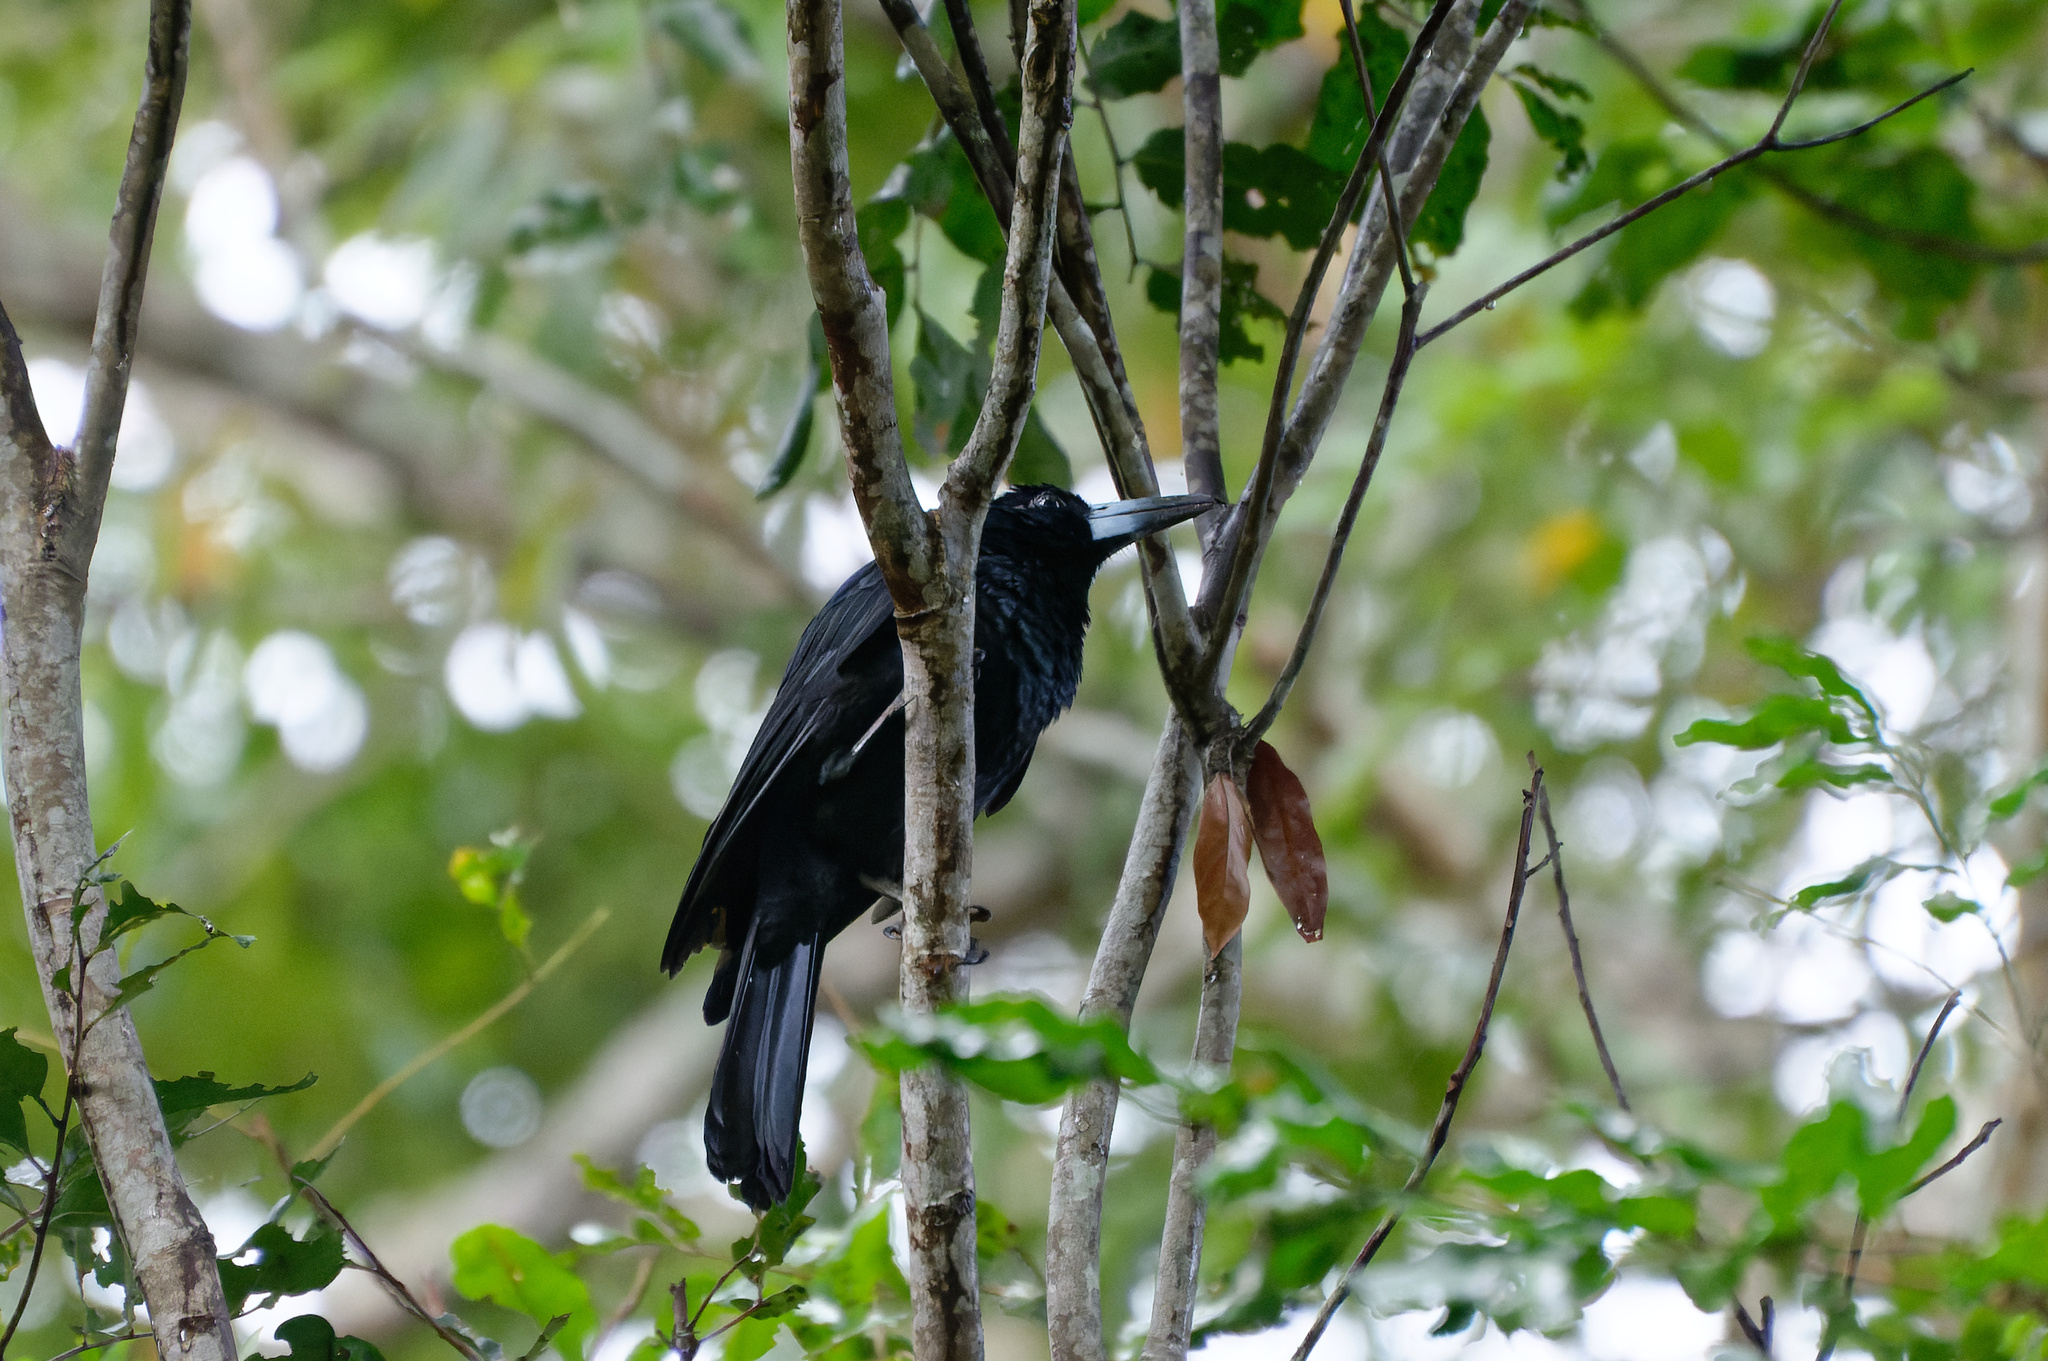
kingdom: Animalia
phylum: Chordata
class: Aves
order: Passeriformes
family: Artamidae
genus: Melloria
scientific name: Melloria quoyi
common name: Black butcherbird
